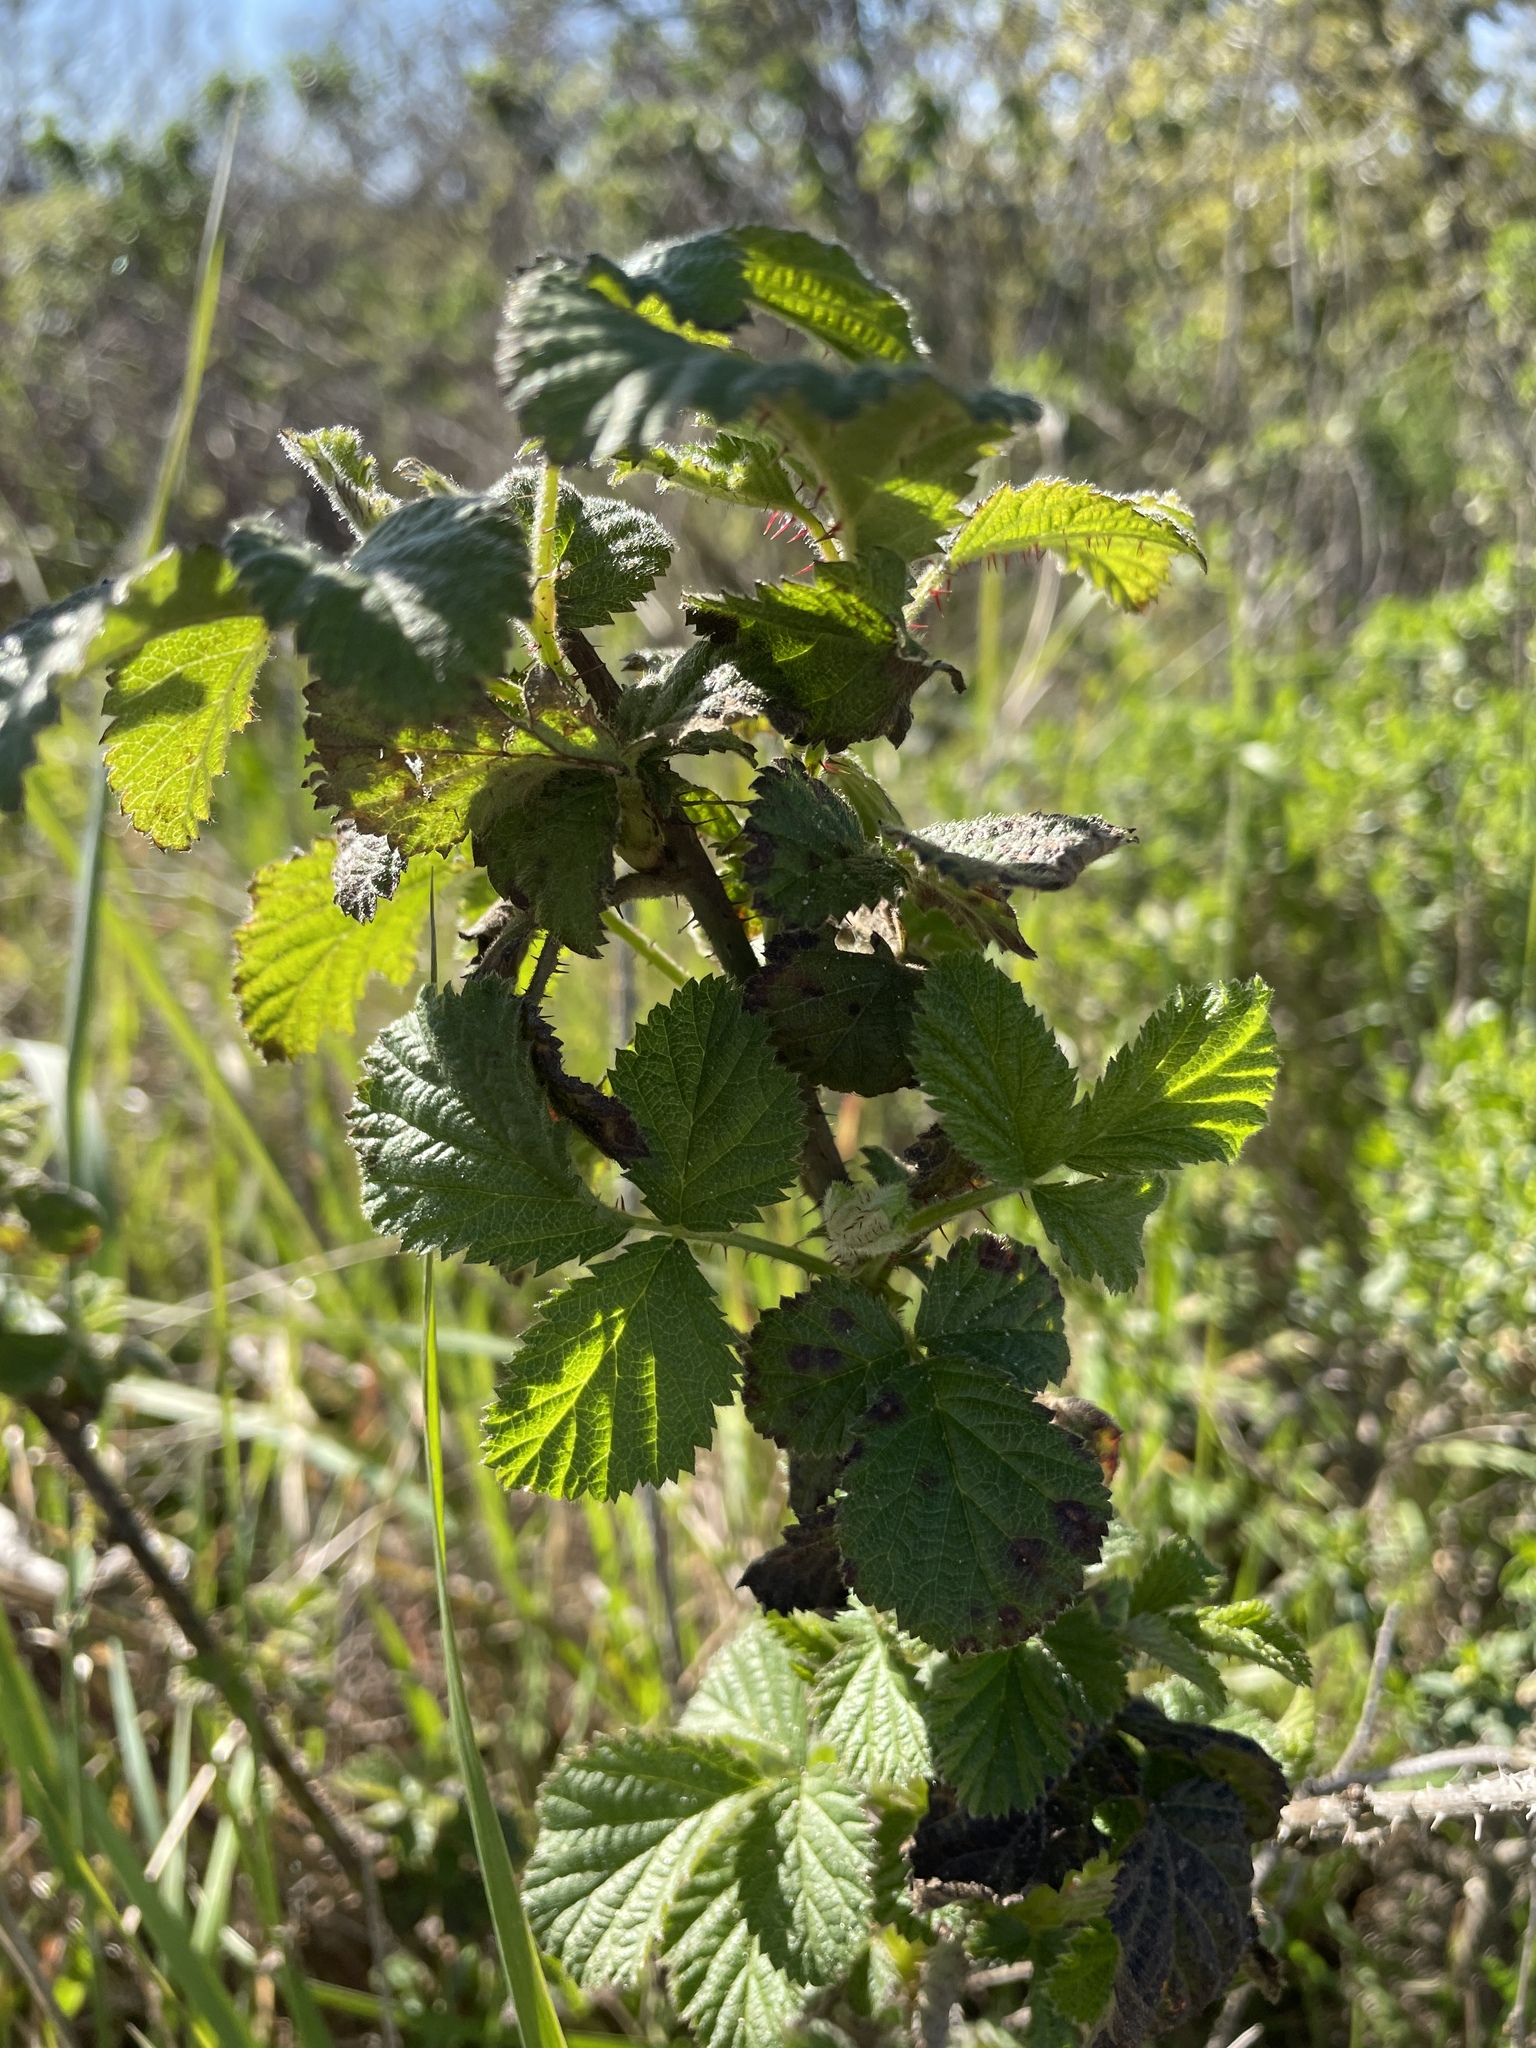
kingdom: Plantae
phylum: Tracheophyta
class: Magnoliopsida
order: Rosales
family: Rosaceae
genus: Rubus
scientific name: Rubus ursinus
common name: Pacific blackberry
